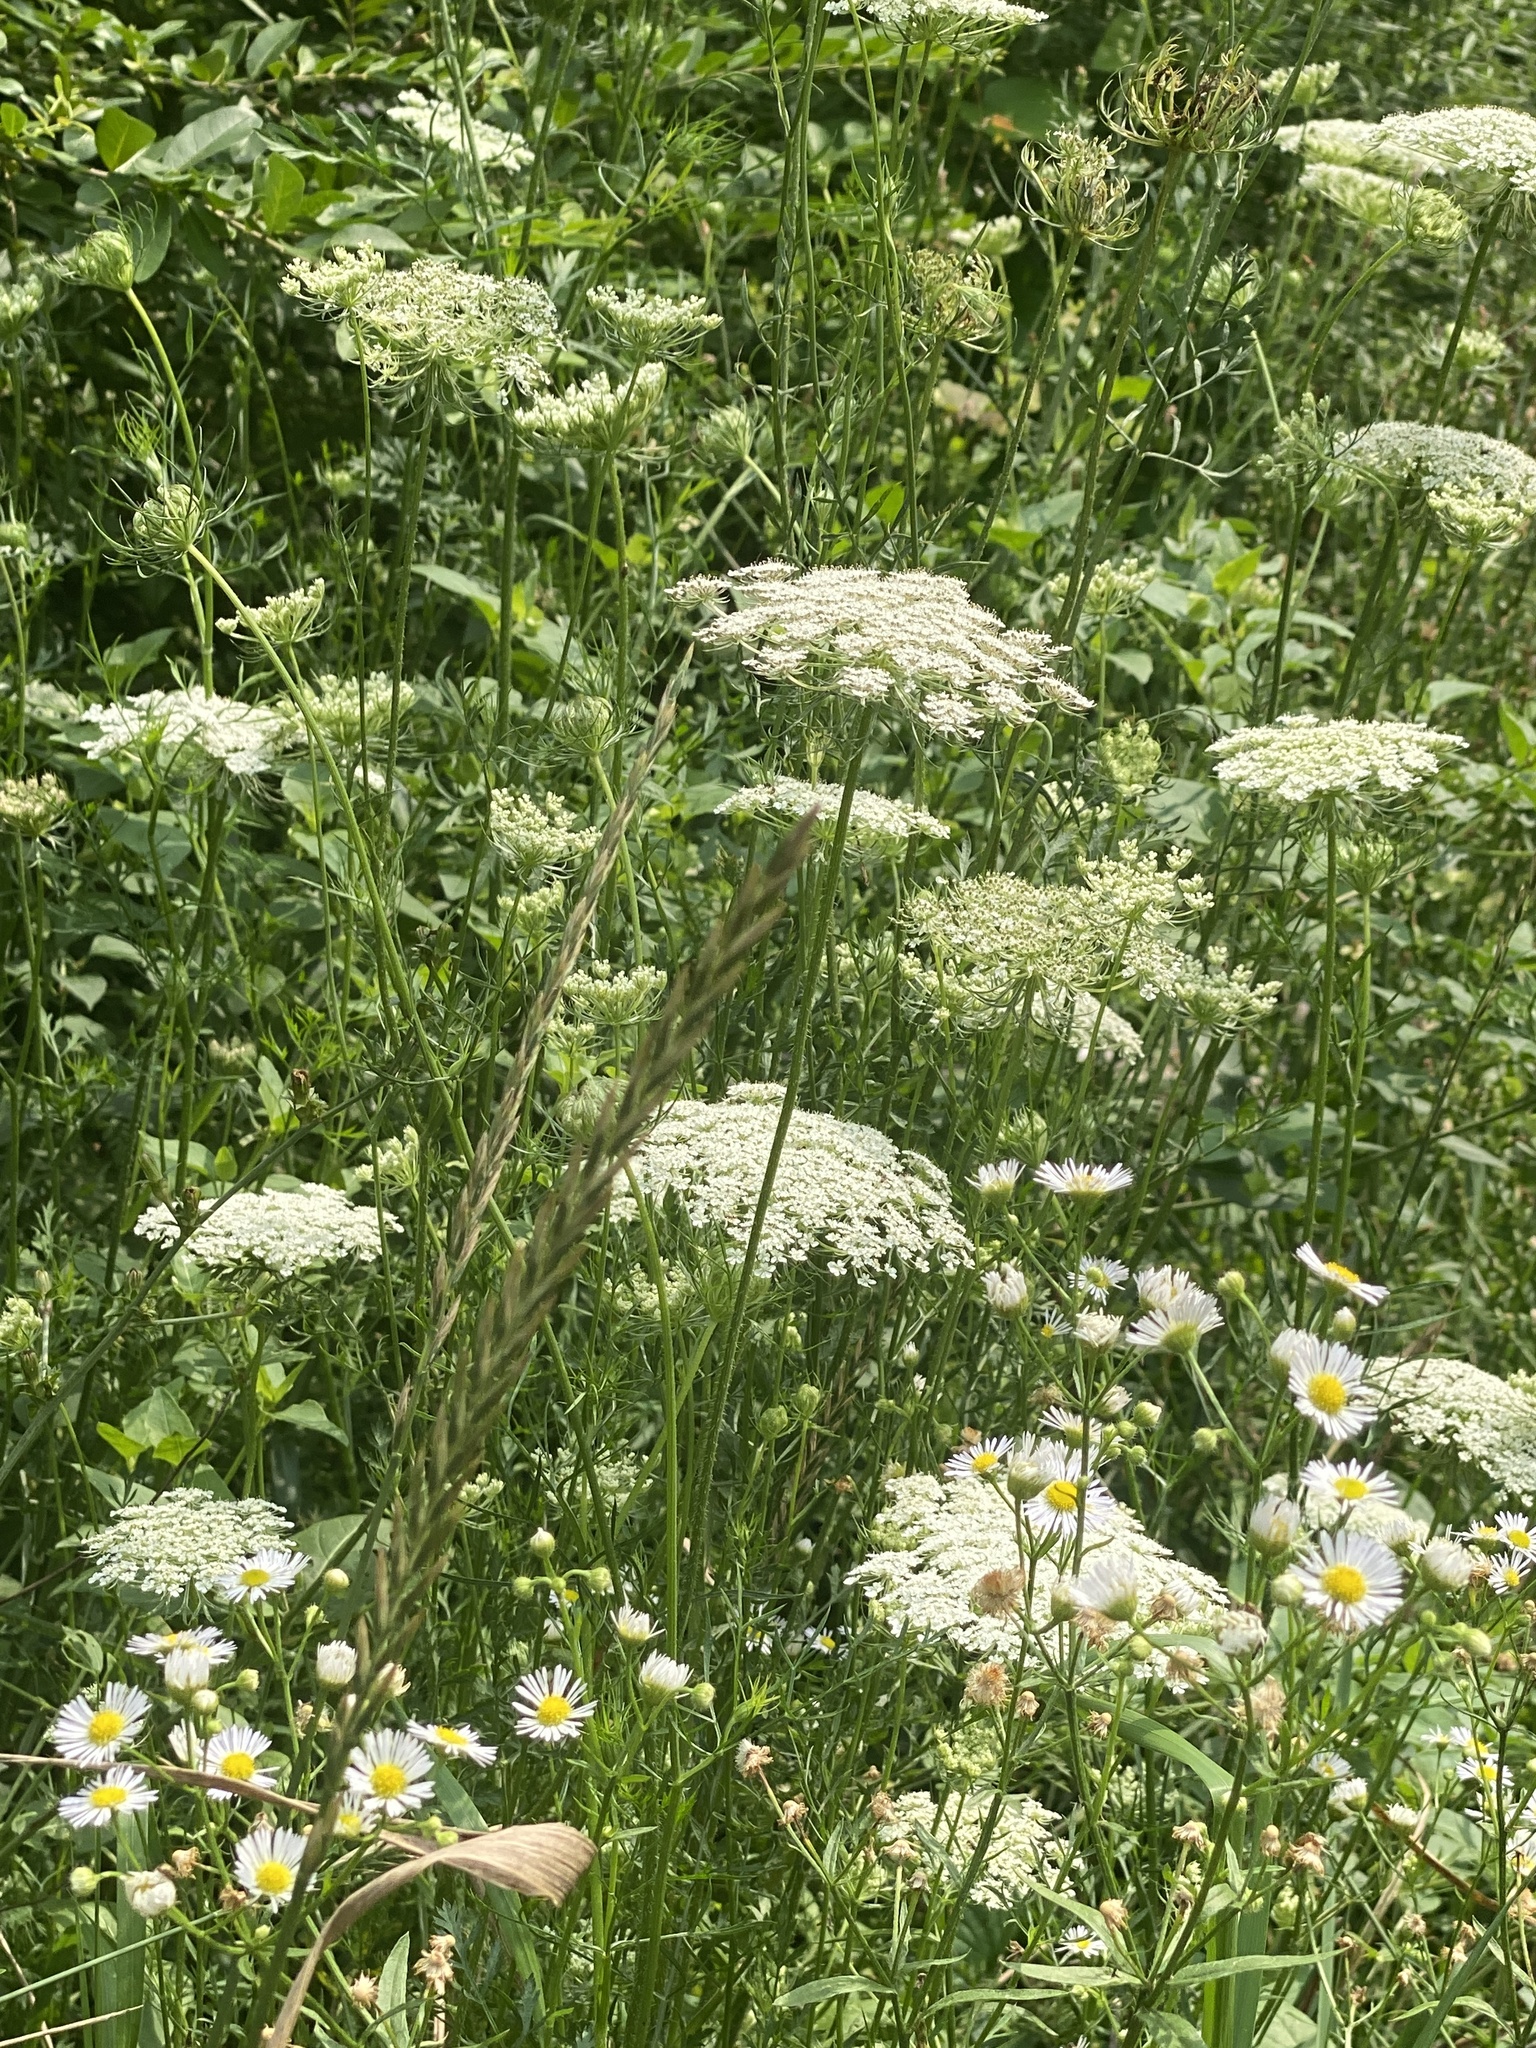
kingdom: Plantae
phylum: Tracheophyta
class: Magnoliopsida
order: Apiales
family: Apiaceae
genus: Daucus
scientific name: Daucus carota
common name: Wild carrot
